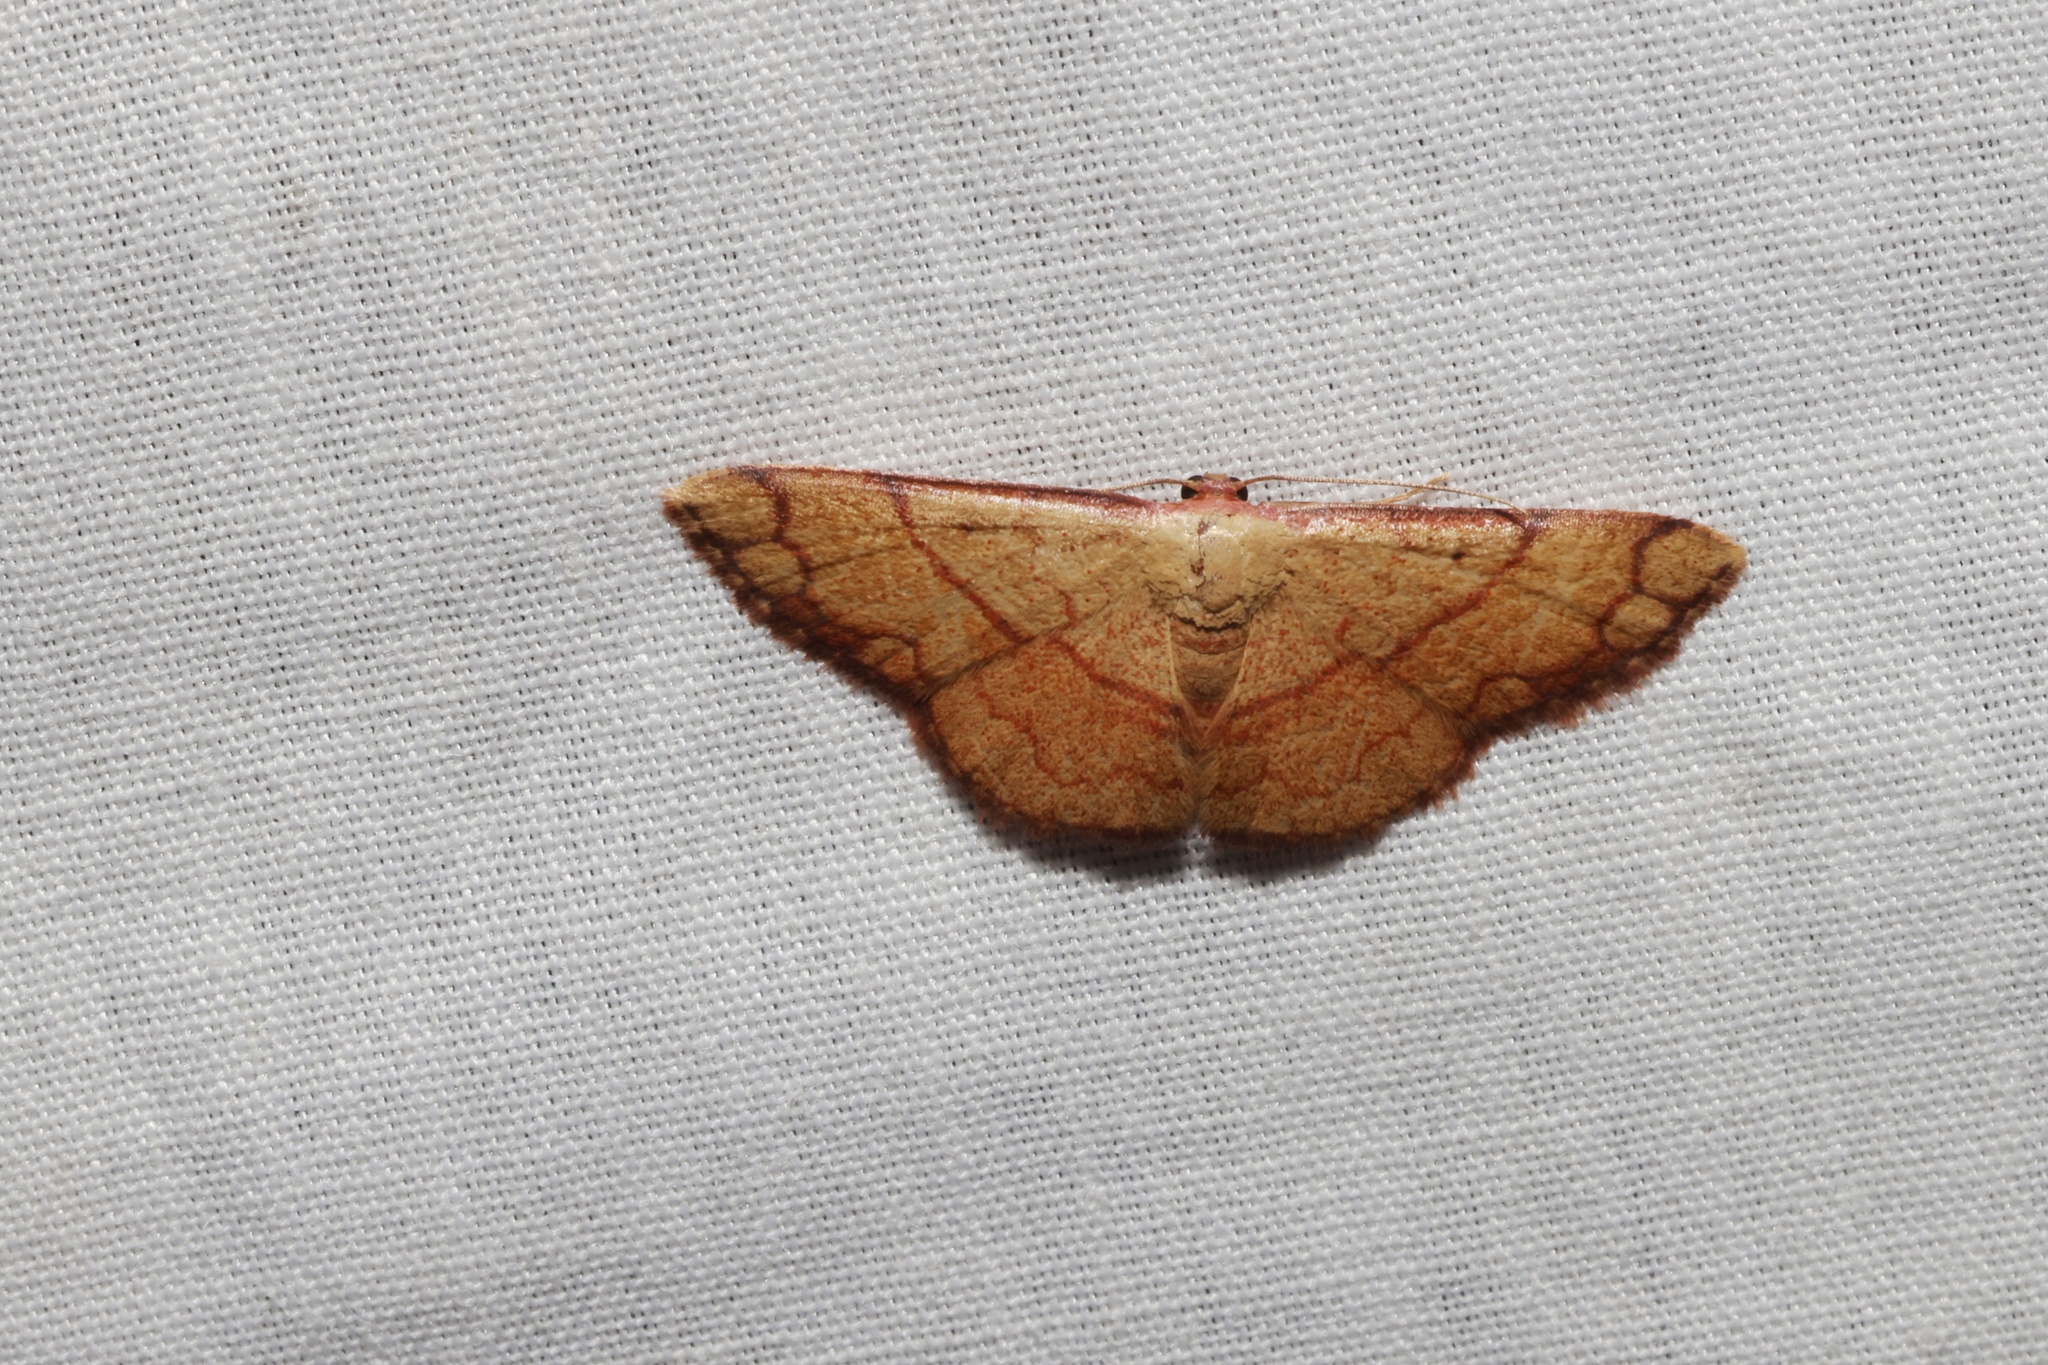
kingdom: Animalia
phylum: Arthropoda
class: Insecta
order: Lepidoptera
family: Geometridae
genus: Pylargosceles
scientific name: Pylargosceles steganioides
